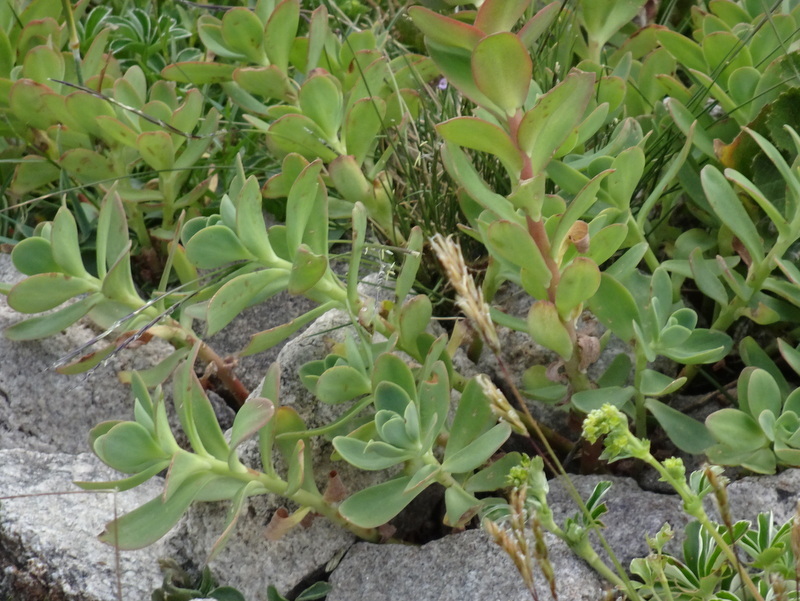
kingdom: Plantae
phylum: Tracheophyta
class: Magnoliopsida
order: Saxifragales
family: Crassulaceae
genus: Rhodiola
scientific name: Rhodiola rosea
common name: Roseroot
